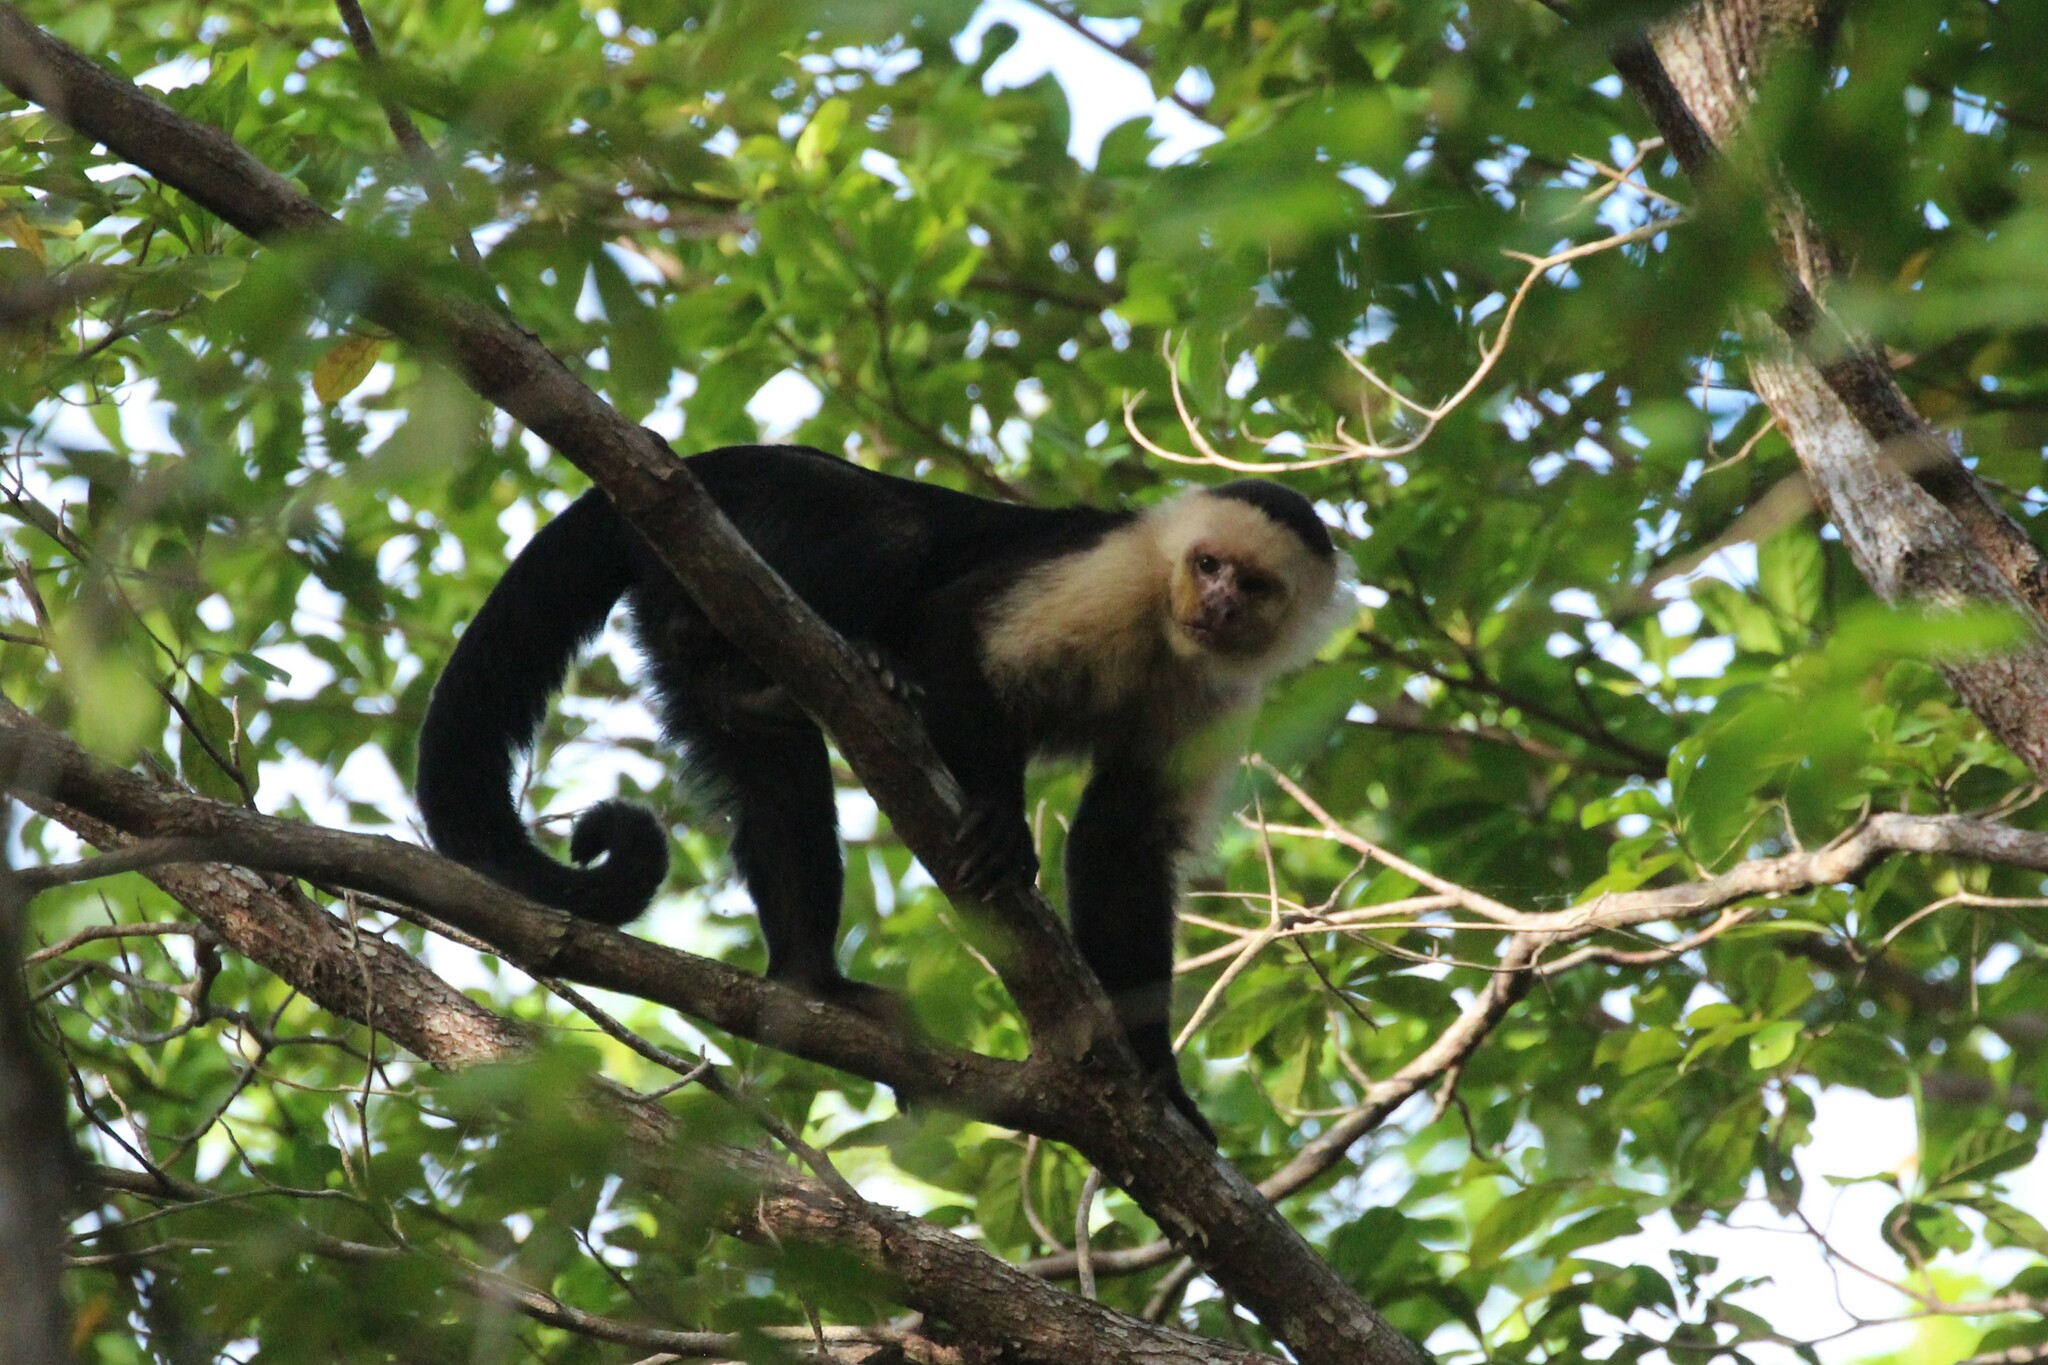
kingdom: Animalia
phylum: Chordata
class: Mammalia
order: Primates
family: Cebidae
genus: Cebus
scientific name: Cebus imitator
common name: Panamanian white-faced capuchin
